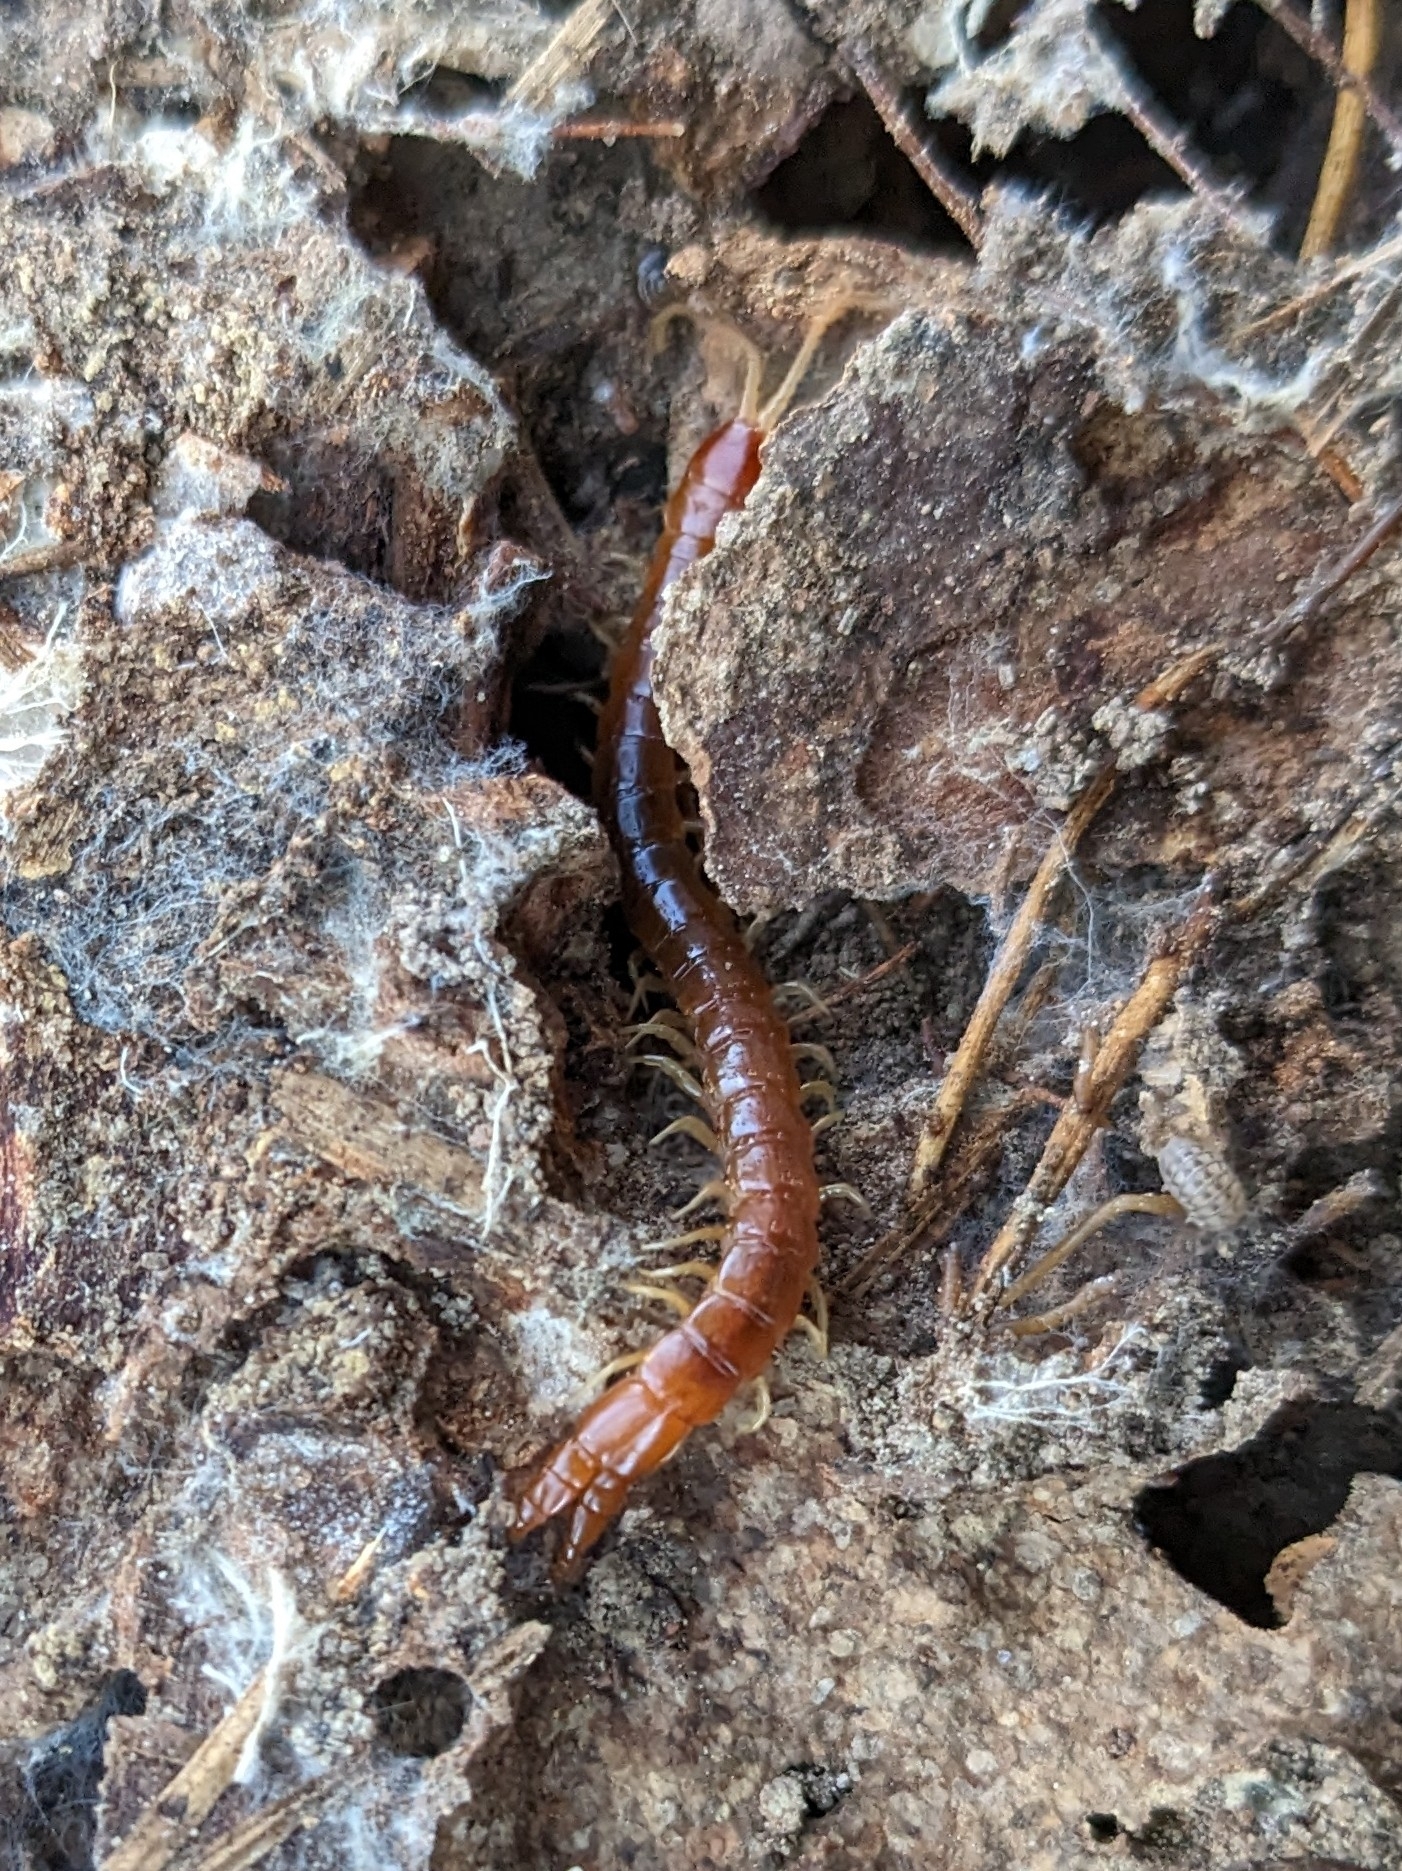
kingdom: Animalia
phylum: Arthropoda
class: Chilopoda
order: Scolopendromorpha
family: Cryptopidae
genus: Theatops
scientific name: Theatops posticus
